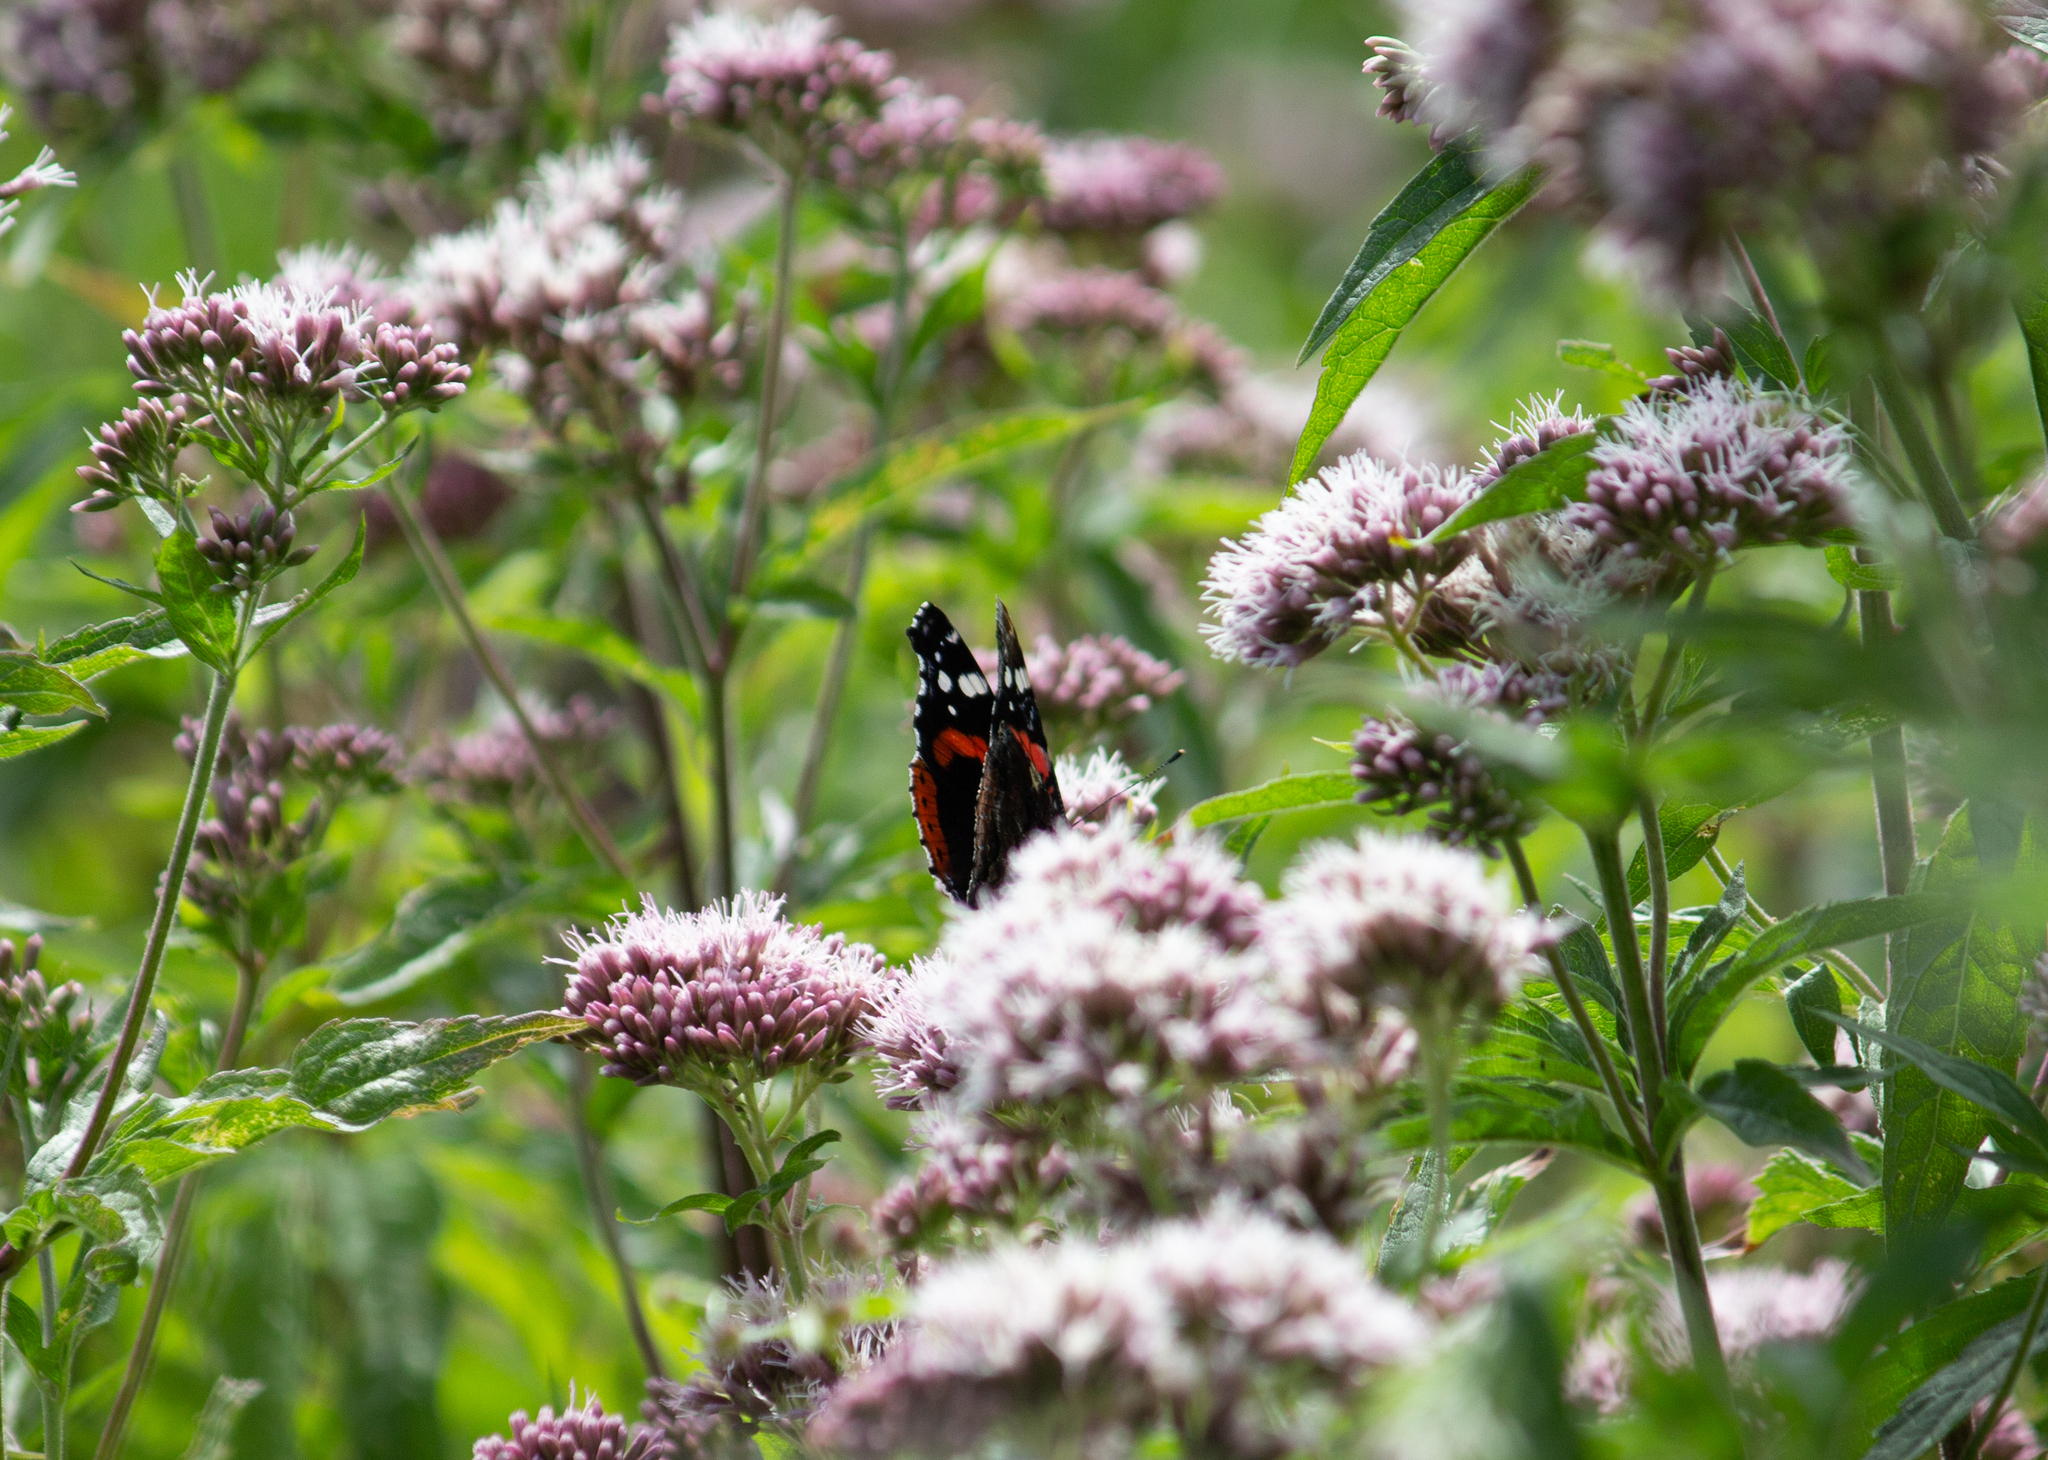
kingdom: Animalia
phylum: Arthropoda
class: Insecta
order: Lepidoptera
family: Nymphalidae
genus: Vanessa
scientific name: Vanessa atalanta
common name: Red admiral
